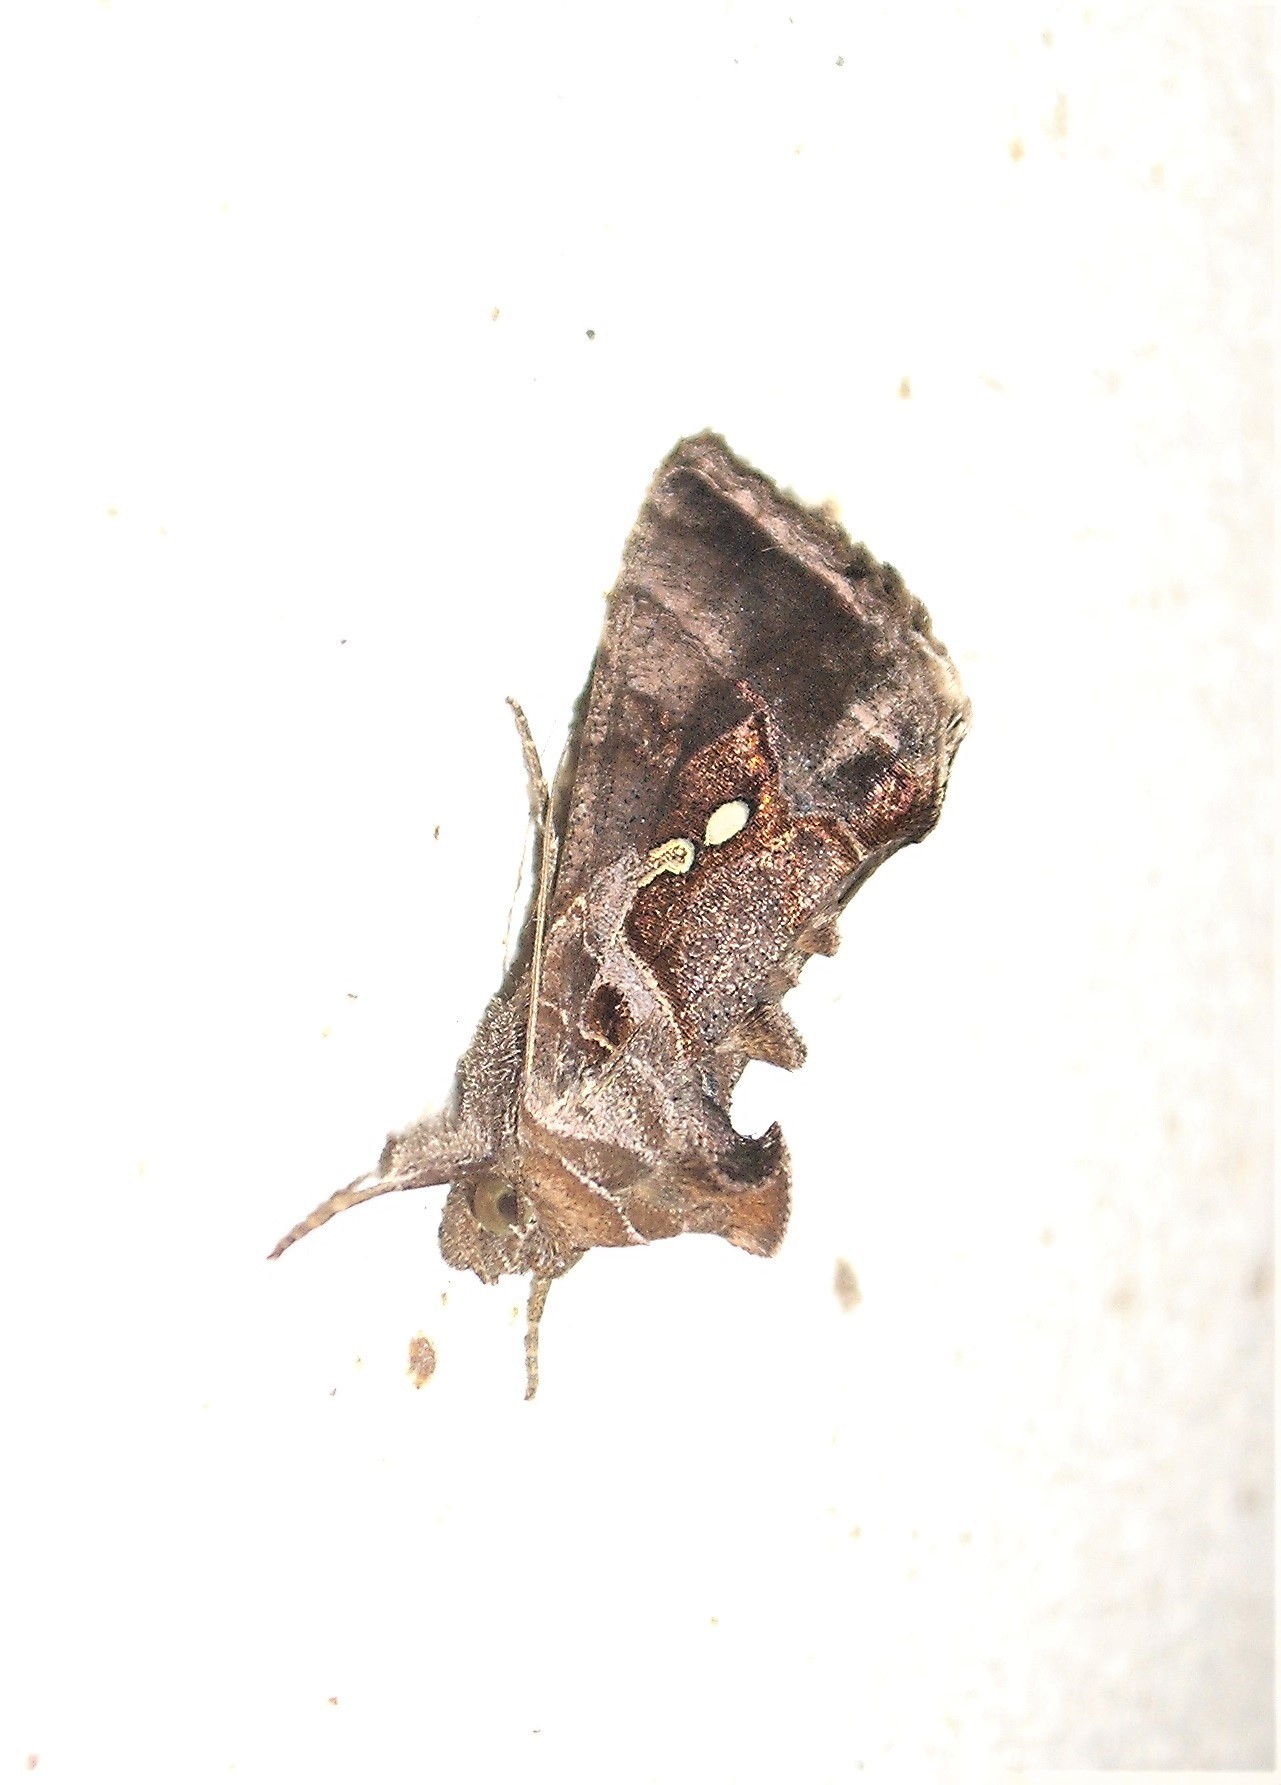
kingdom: Animalia
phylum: Arthropoda
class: Insecta
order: Lepidoptera
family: Noctuidae
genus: Chrysodeixis
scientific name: Chrysodeixis eriosoma
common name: Green garden looper
